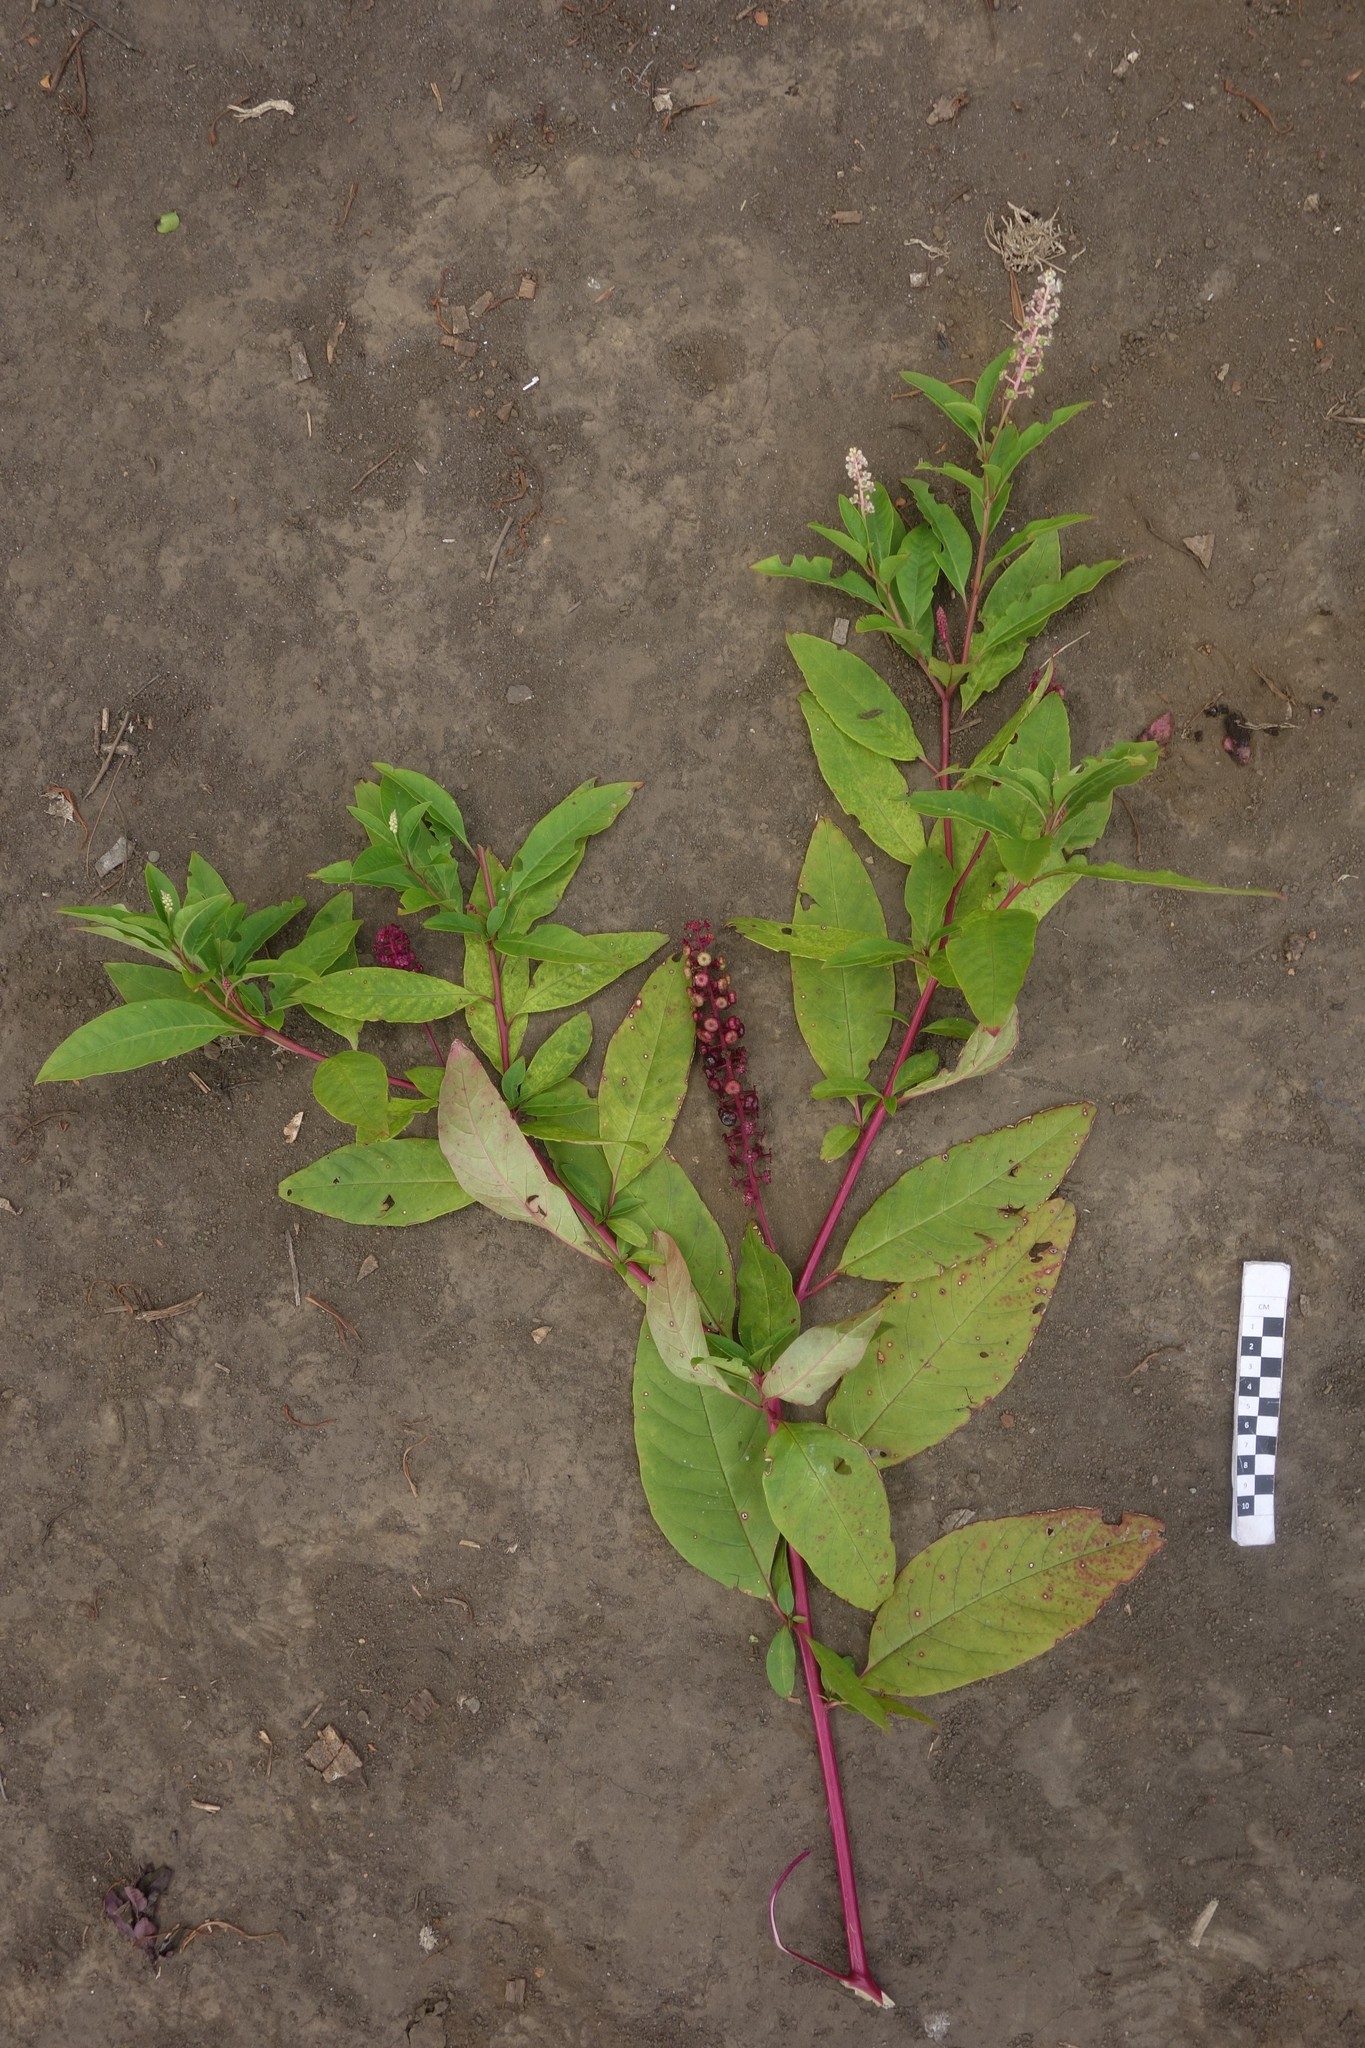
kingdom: Plantae
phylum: Tracheophyta
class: Magnoliopsida
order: Caryophyllales
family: Phytolaccaceae
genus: Phytolacca
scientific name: Phytolacca americana
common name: American pokeweed
